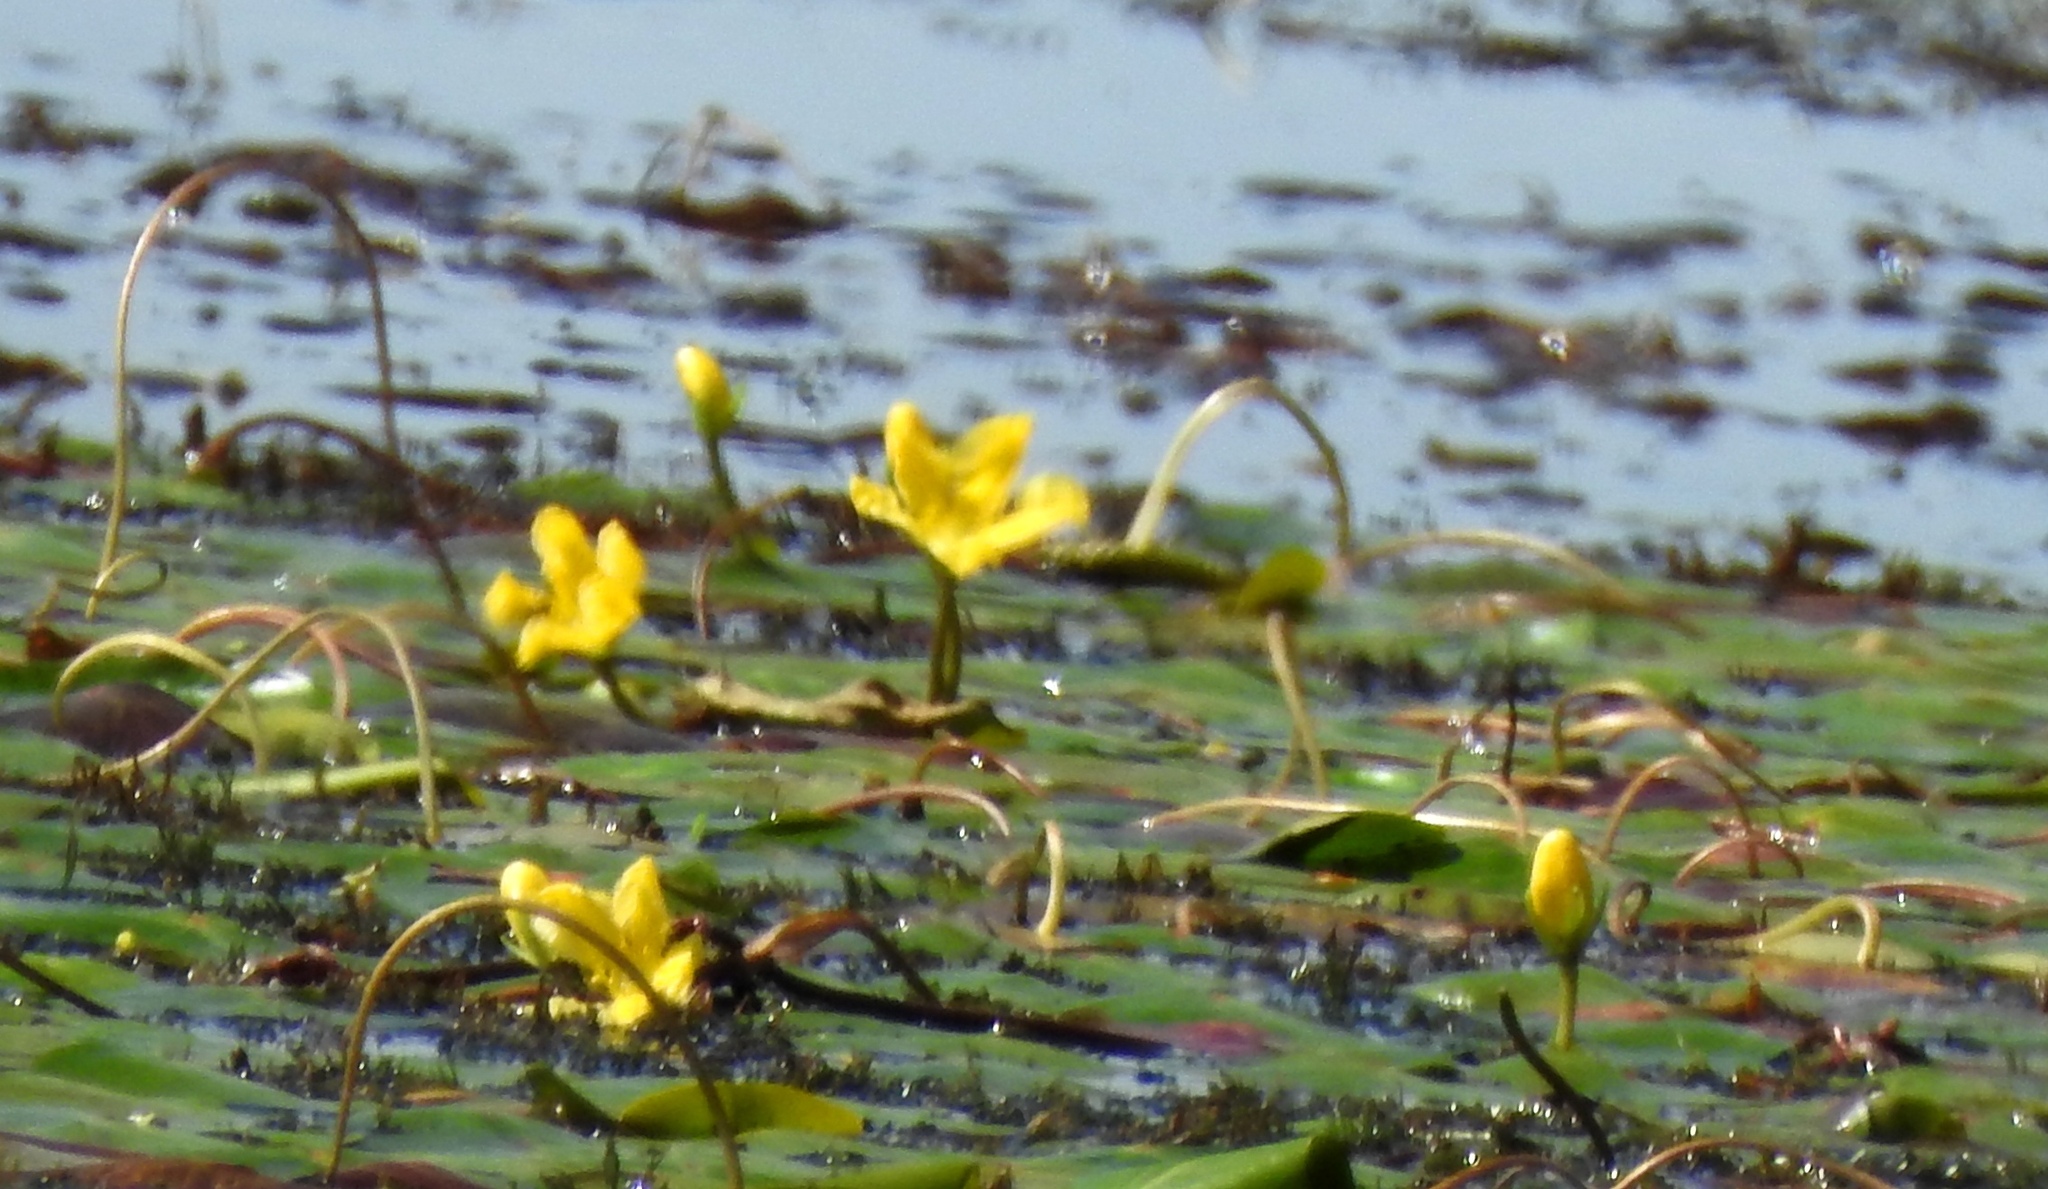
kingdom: Plantae
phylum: Tracheophyta
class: Magnoliopsida
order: Asterales
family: Menyanthaceae
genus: Nymphoides
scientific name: Nymphoides peltata
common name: Fringed water-lily
